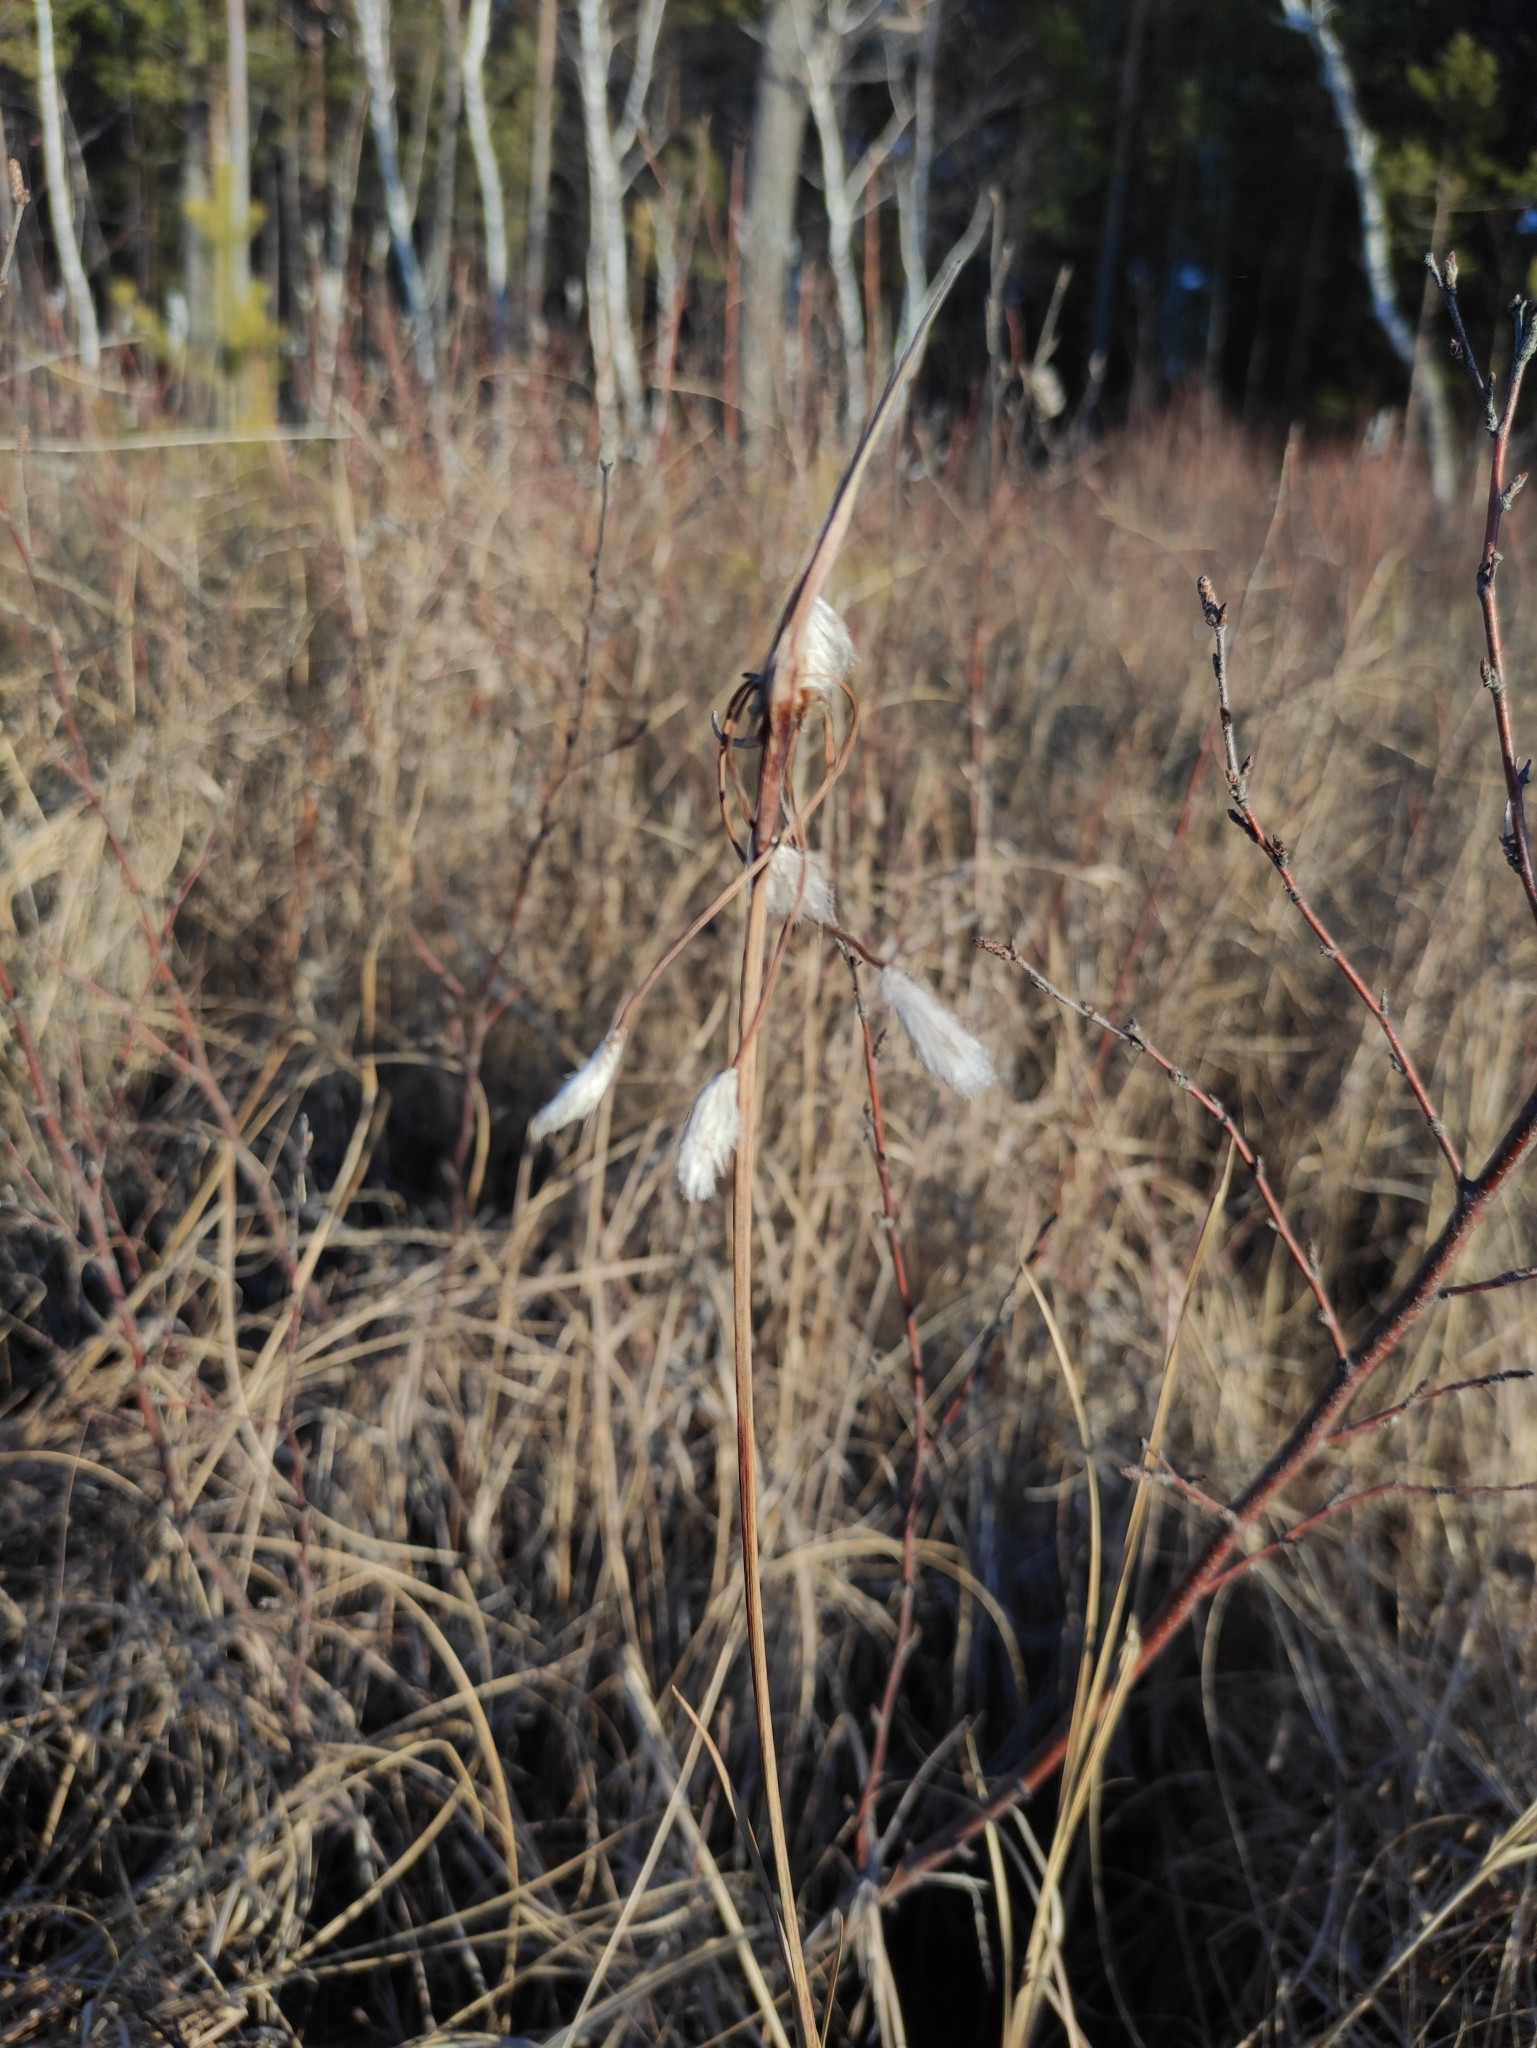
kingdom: Plantae
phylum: Tracheophyta
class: Liliopsida
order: Poales
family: Cyperaceae
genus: Eriophorum
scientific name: Eriophorum angustifolium
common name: Common cottongrass
